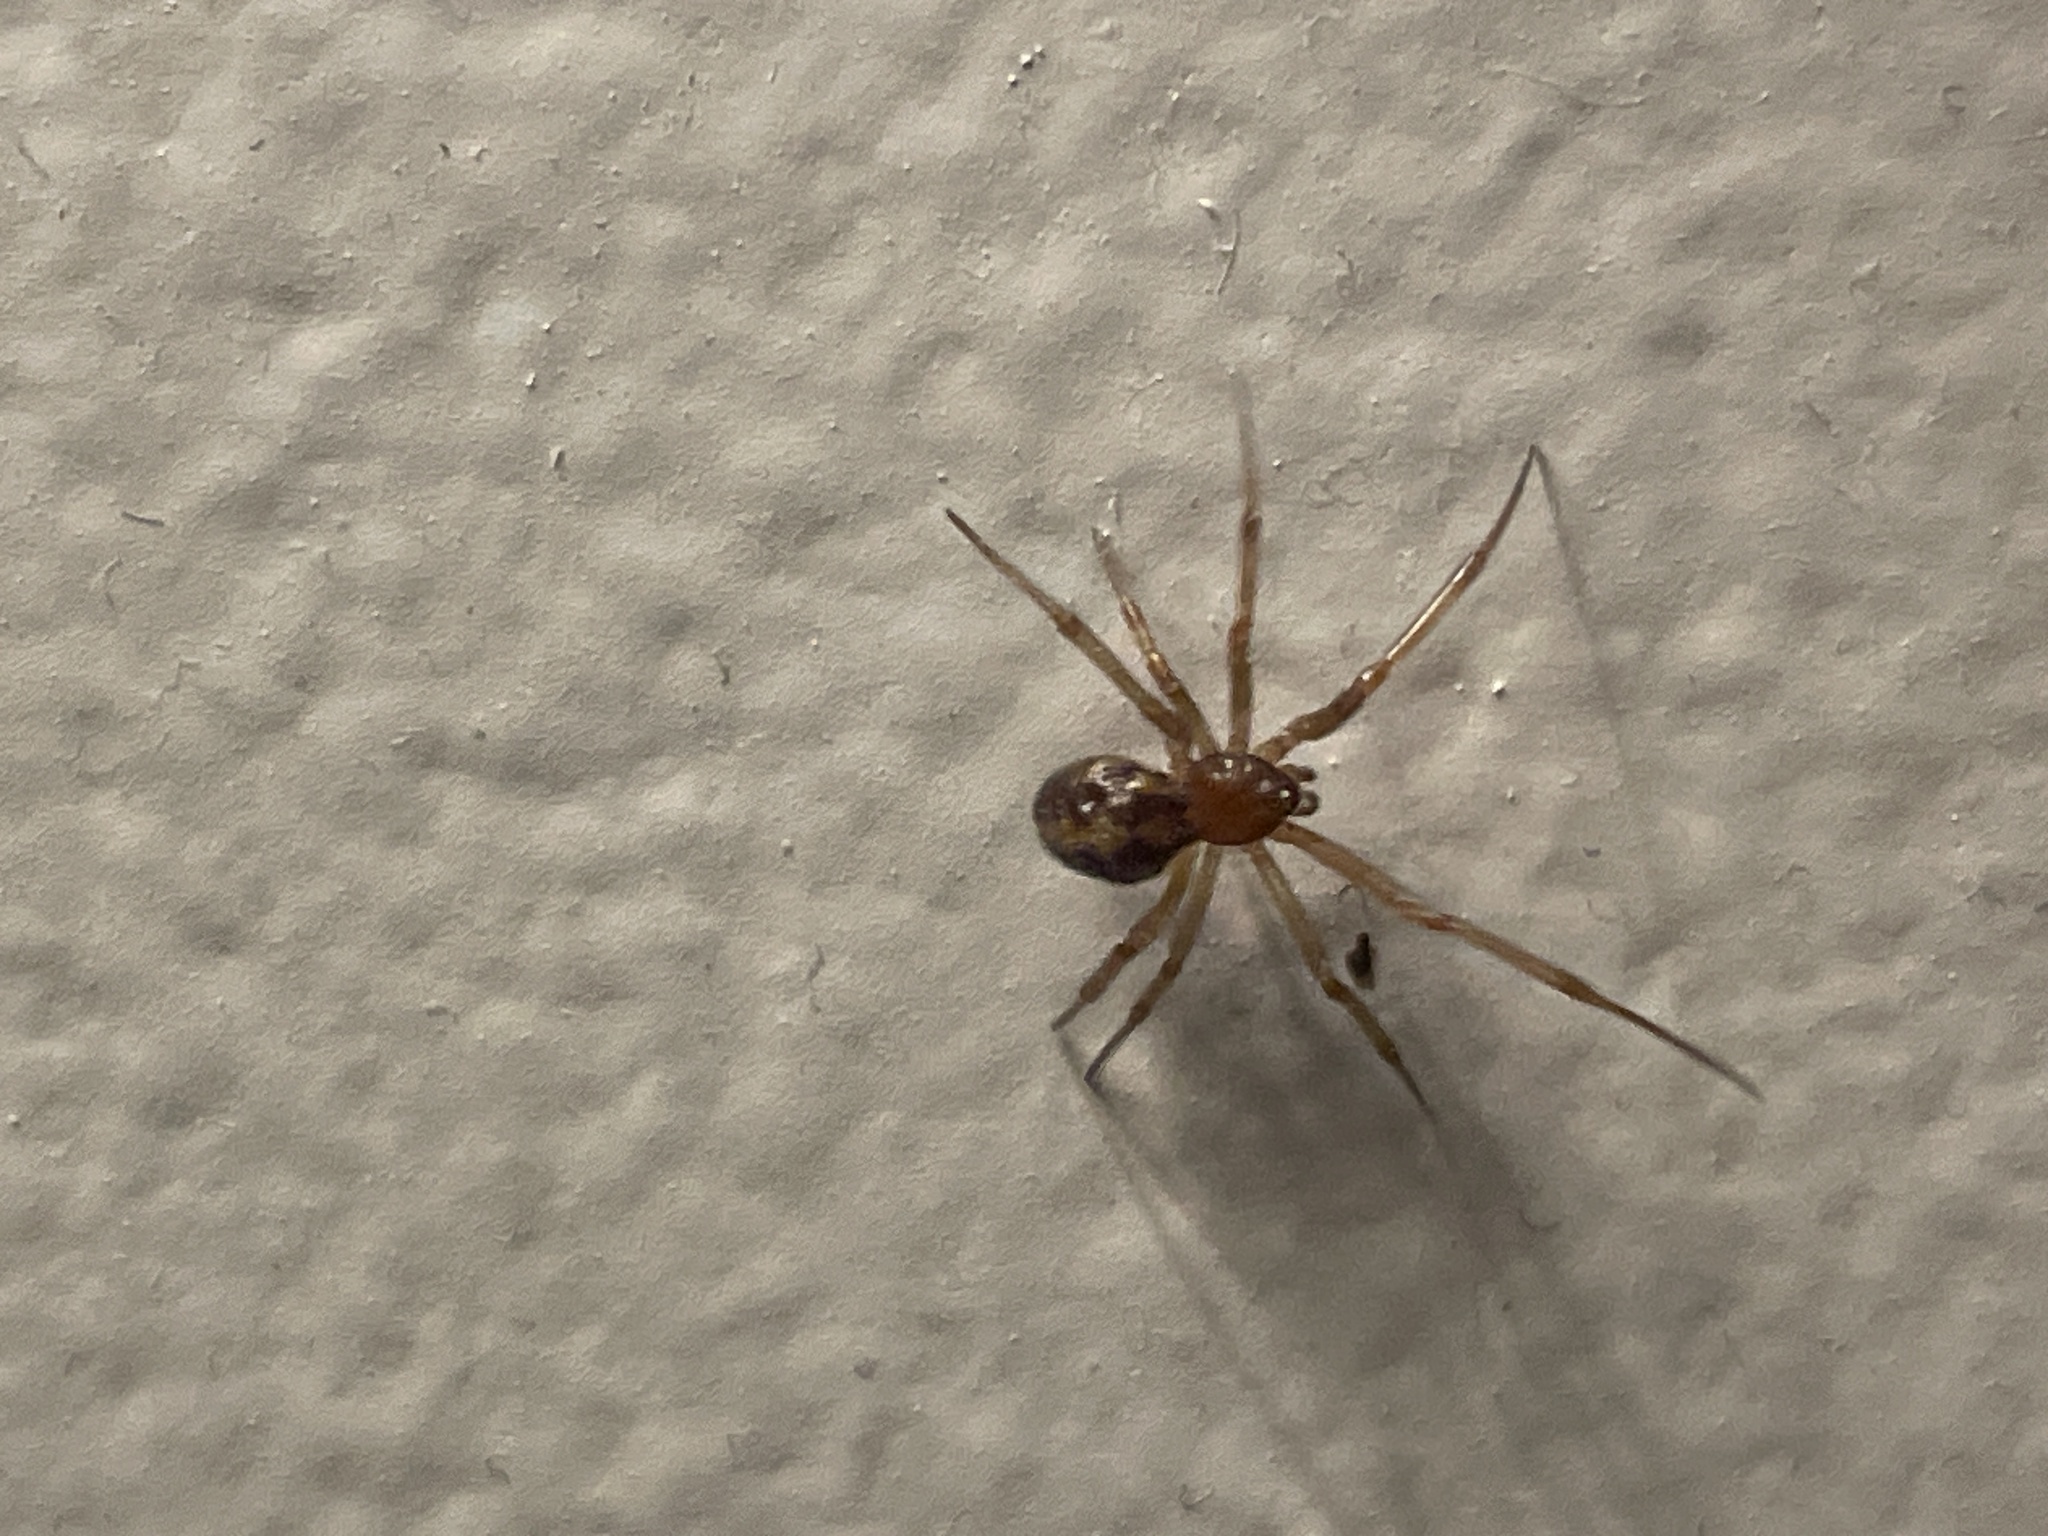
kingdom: Animalia
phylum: Arthropoda
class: Arachnida
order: Araneae
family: Theridiidae
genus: Parasteatoda
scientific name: Parasteatoda tepidariorum
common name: Common house spider
